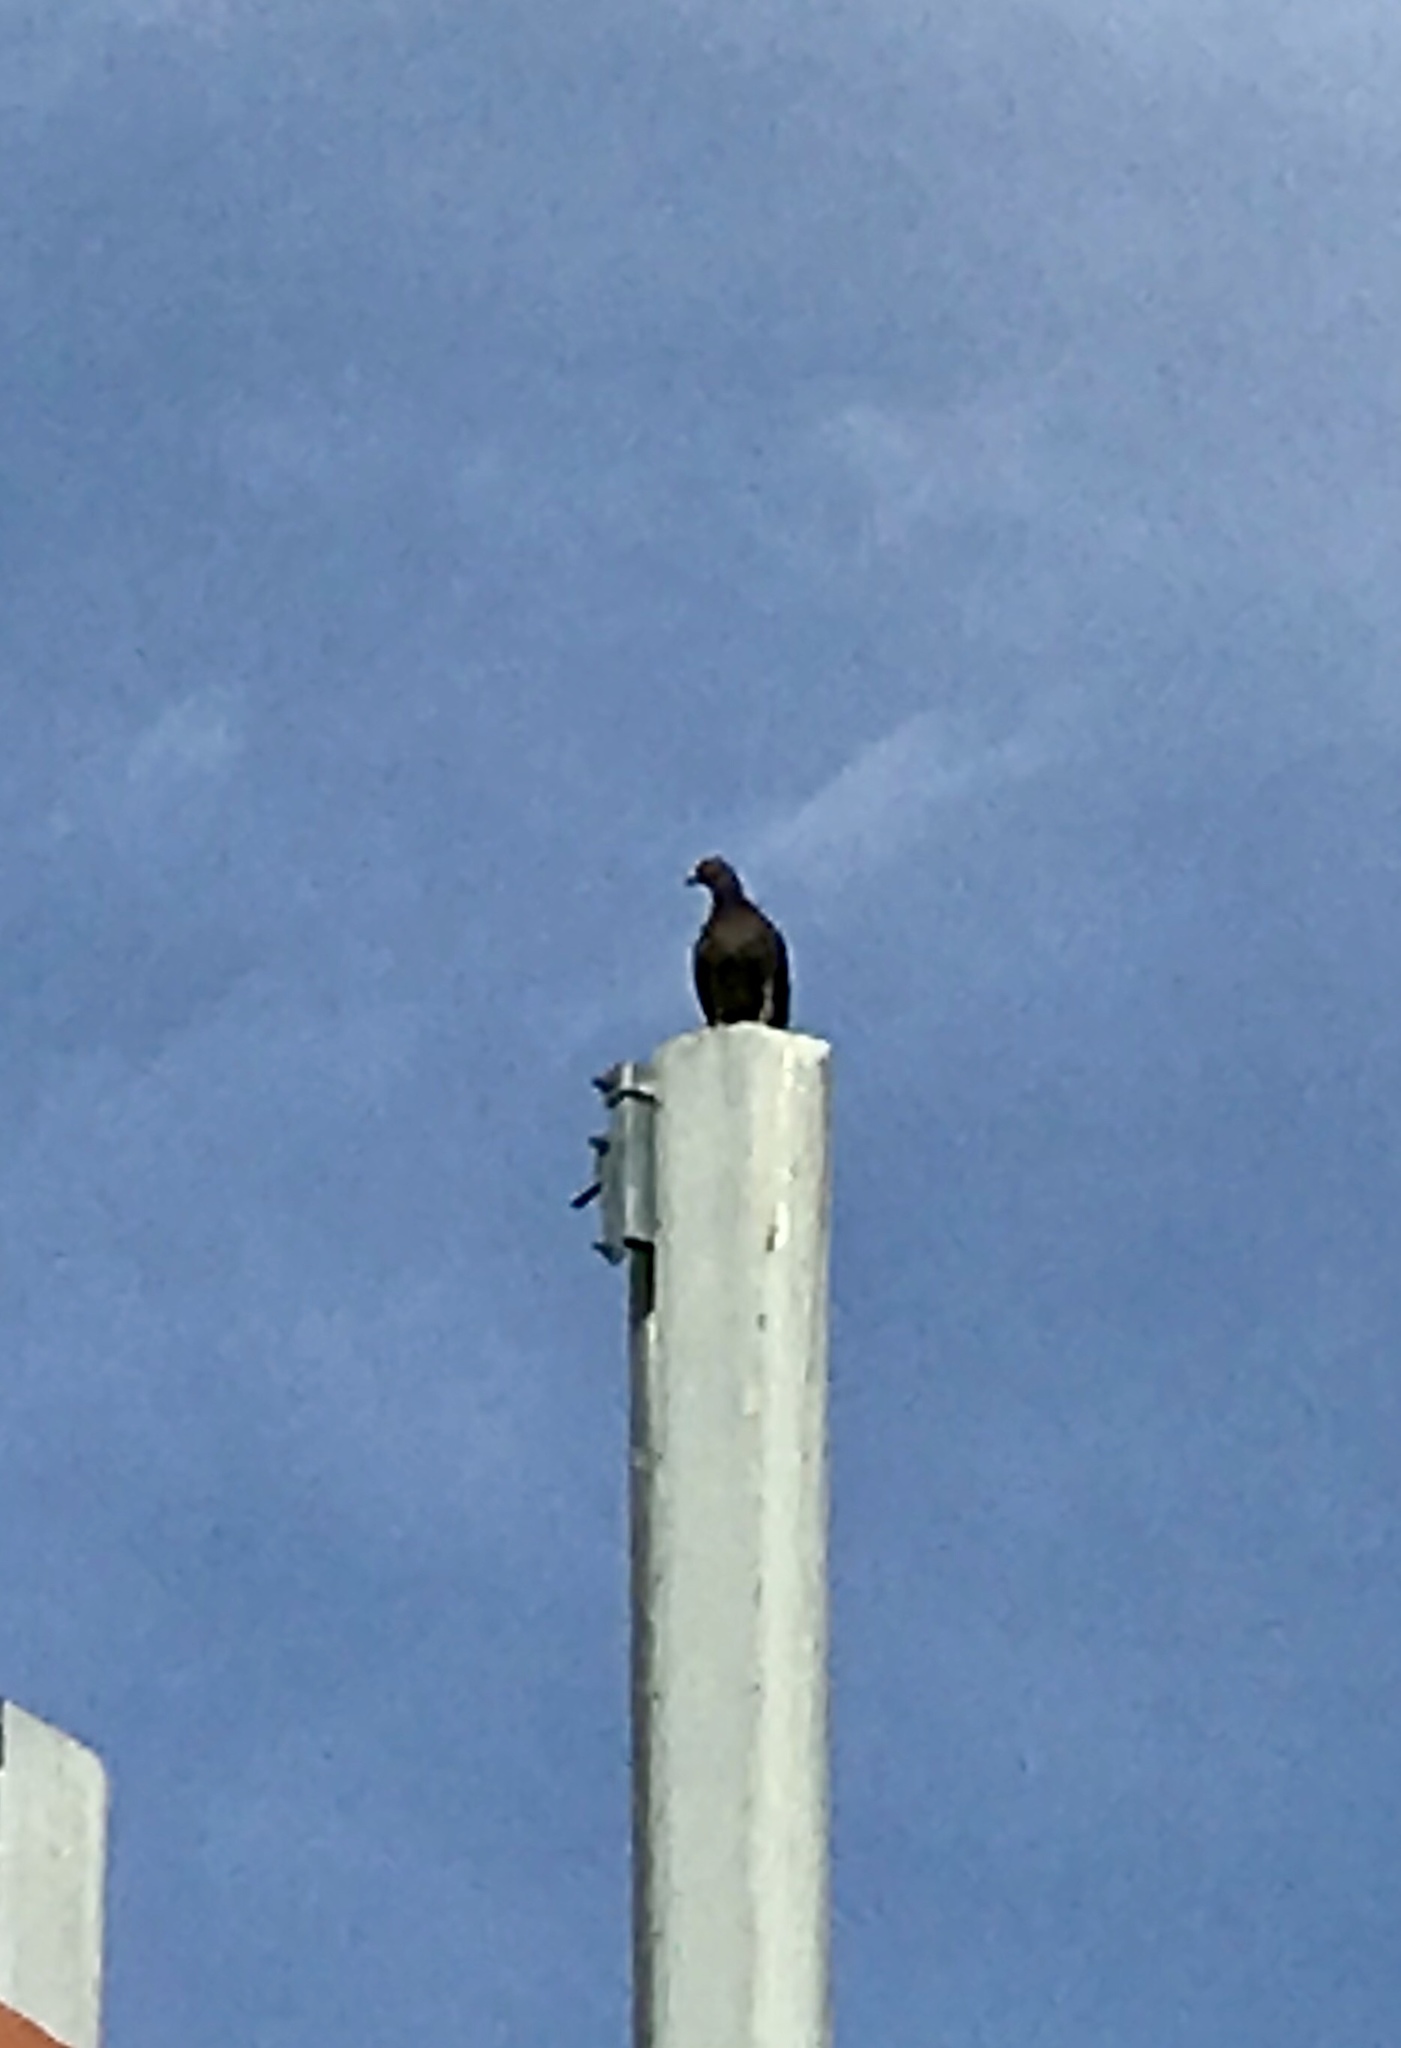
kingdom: Animalia
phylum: Chordata
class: Aves
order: Columbiformes
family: Columbidae
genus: Columba
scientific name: Columba livia
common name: Rock pigeon
